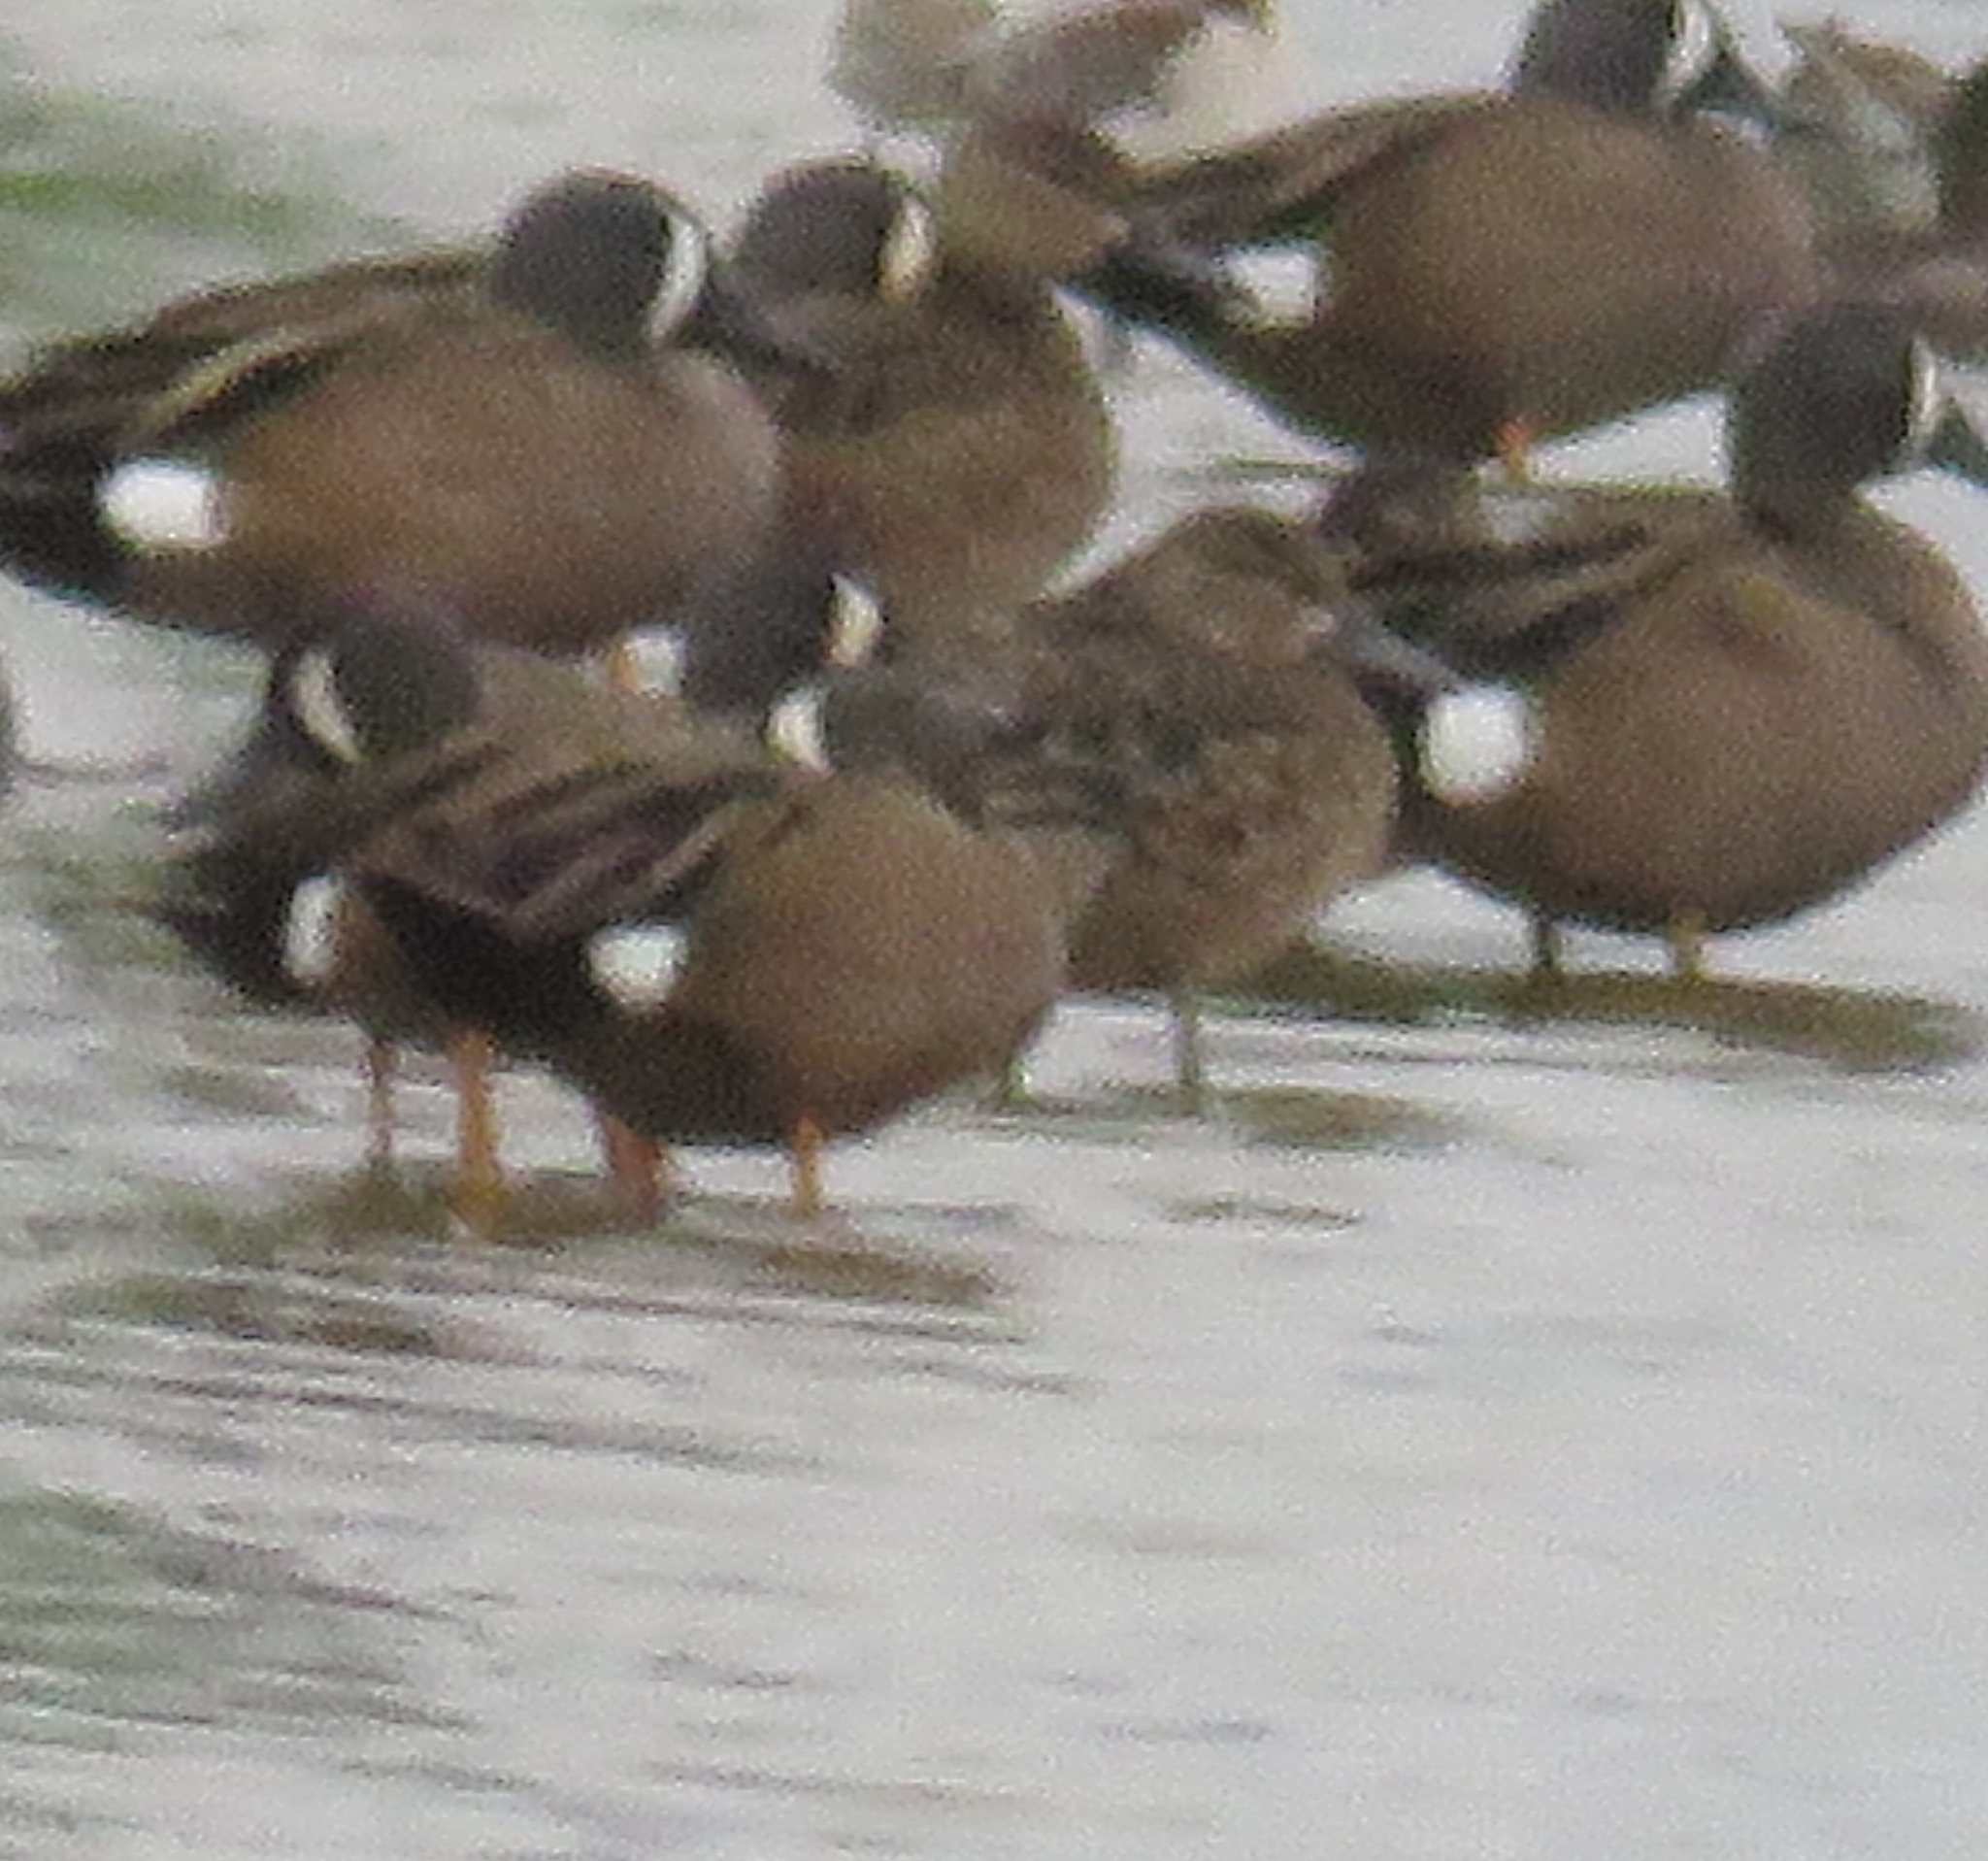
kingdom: Animalia
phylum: Chordata
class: Aves
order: Anseriformes
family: Anatidae
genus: Spatula
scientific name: Spatula discors
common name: Blue-winged teal
